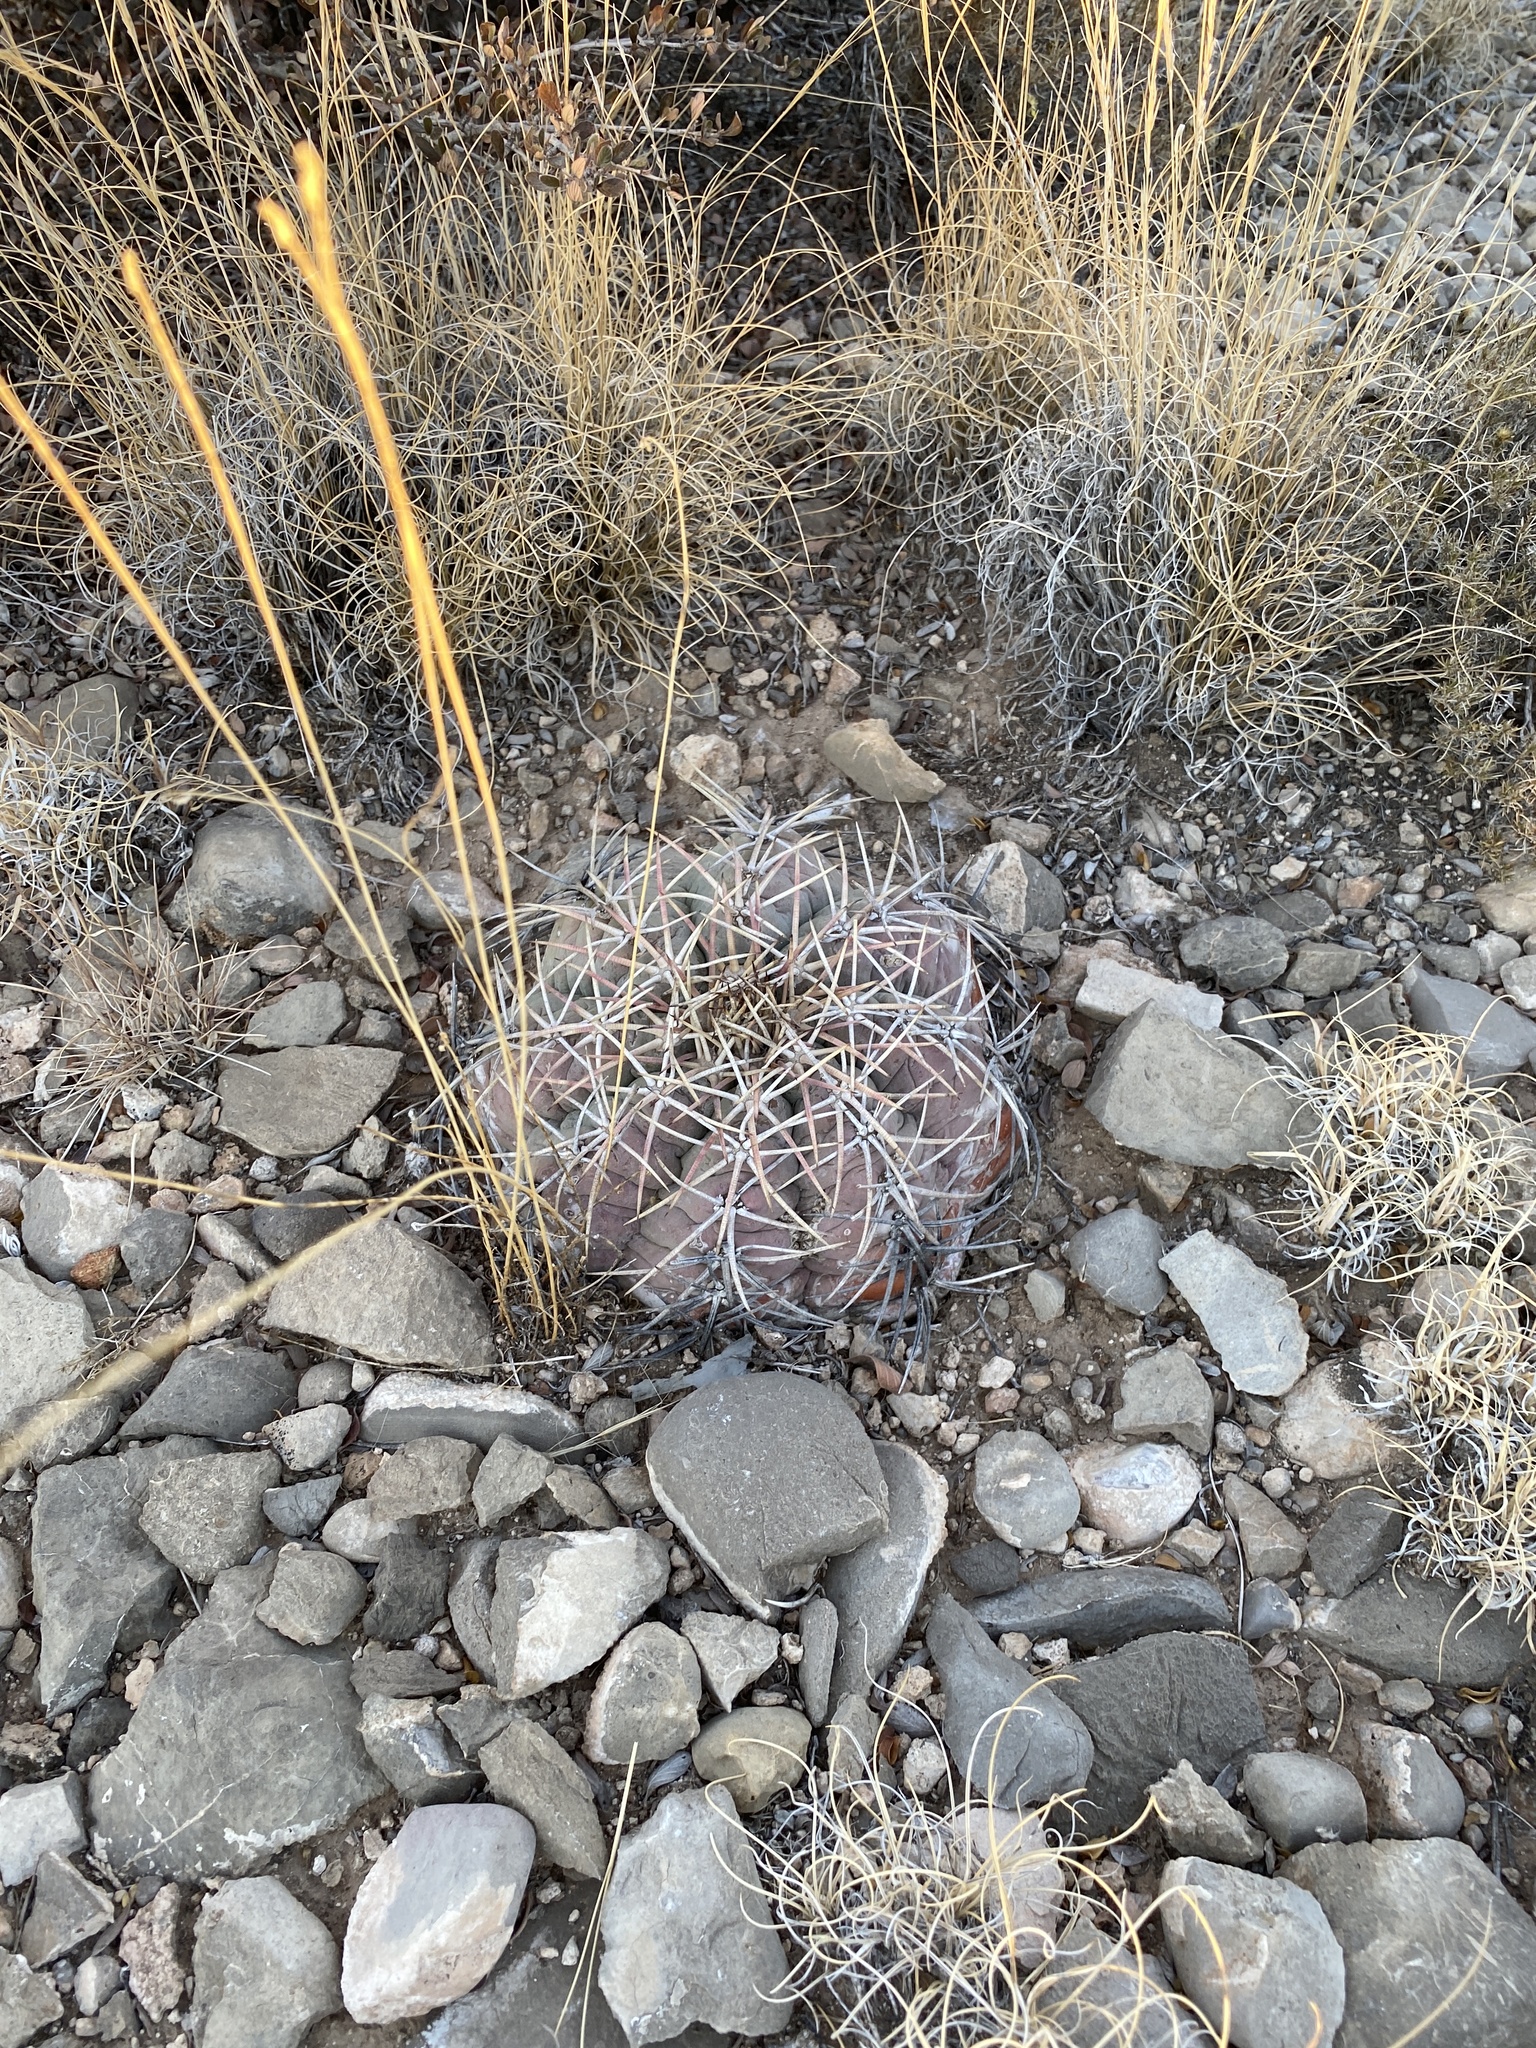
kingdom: Plantae
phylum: Tracheophyta
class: Magnoliopsida
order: Caryophyllales
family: Cactaceae
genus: Echinocactus
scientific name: Echinocactus horizonthalonius
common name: Devilshead
